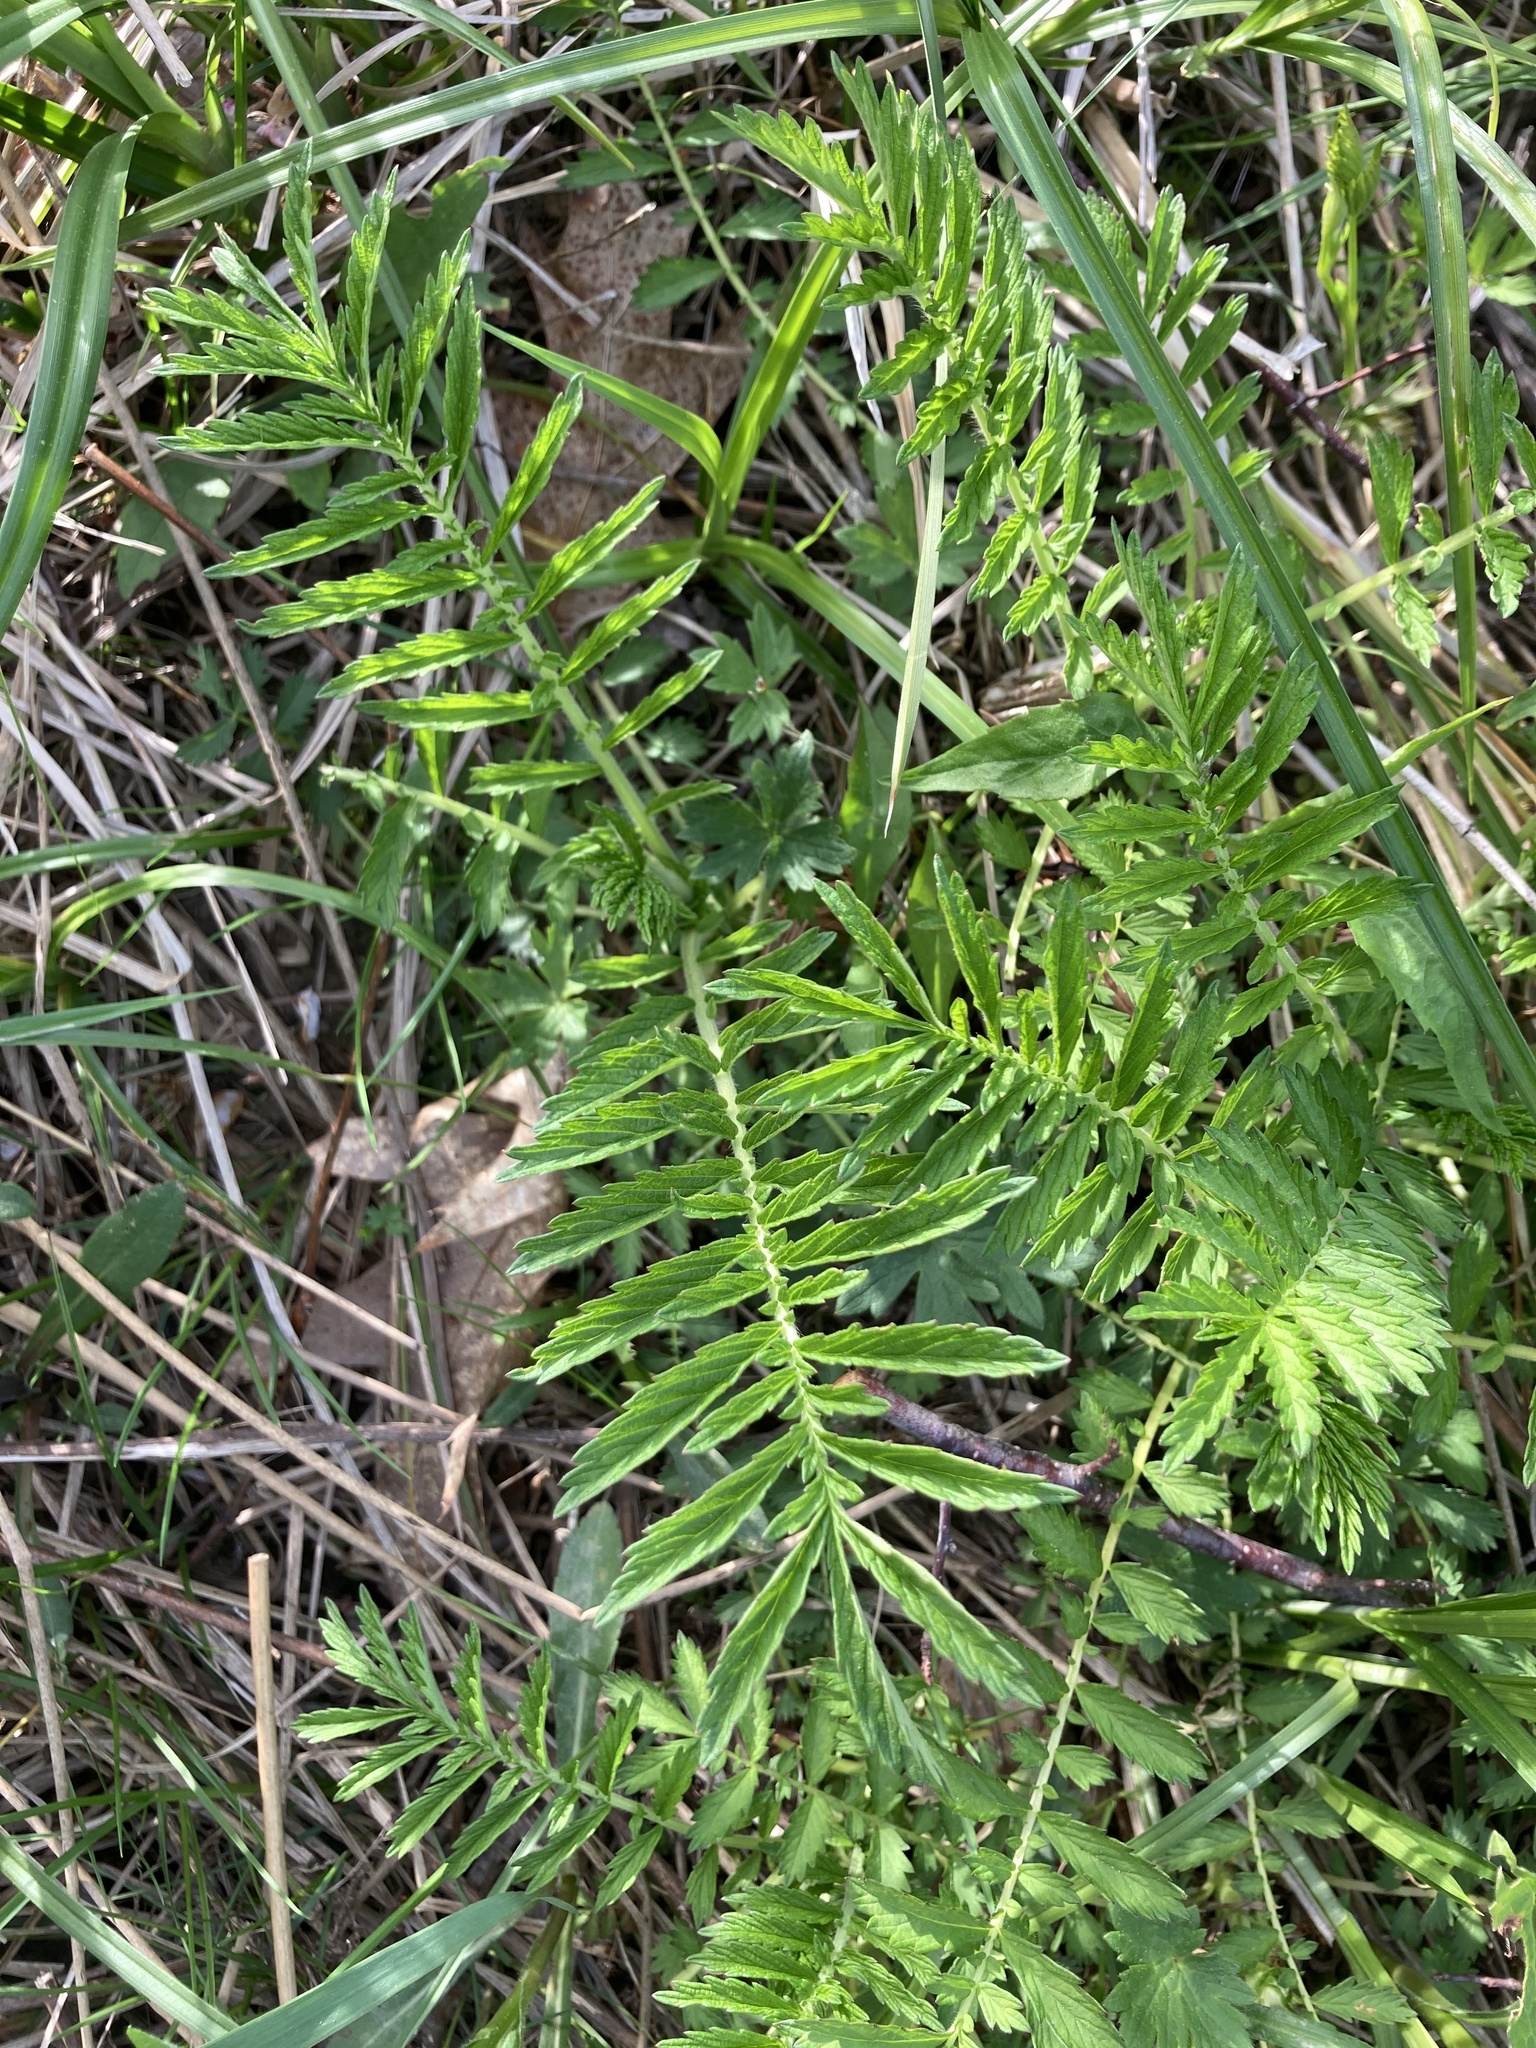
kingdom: Plantae
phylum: Tracheophyta
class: Magnoliopsida
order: Rosales
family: Rosaceae
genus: Agrimonia
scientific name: Agrimonia parviflora
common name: Harvest-lice
